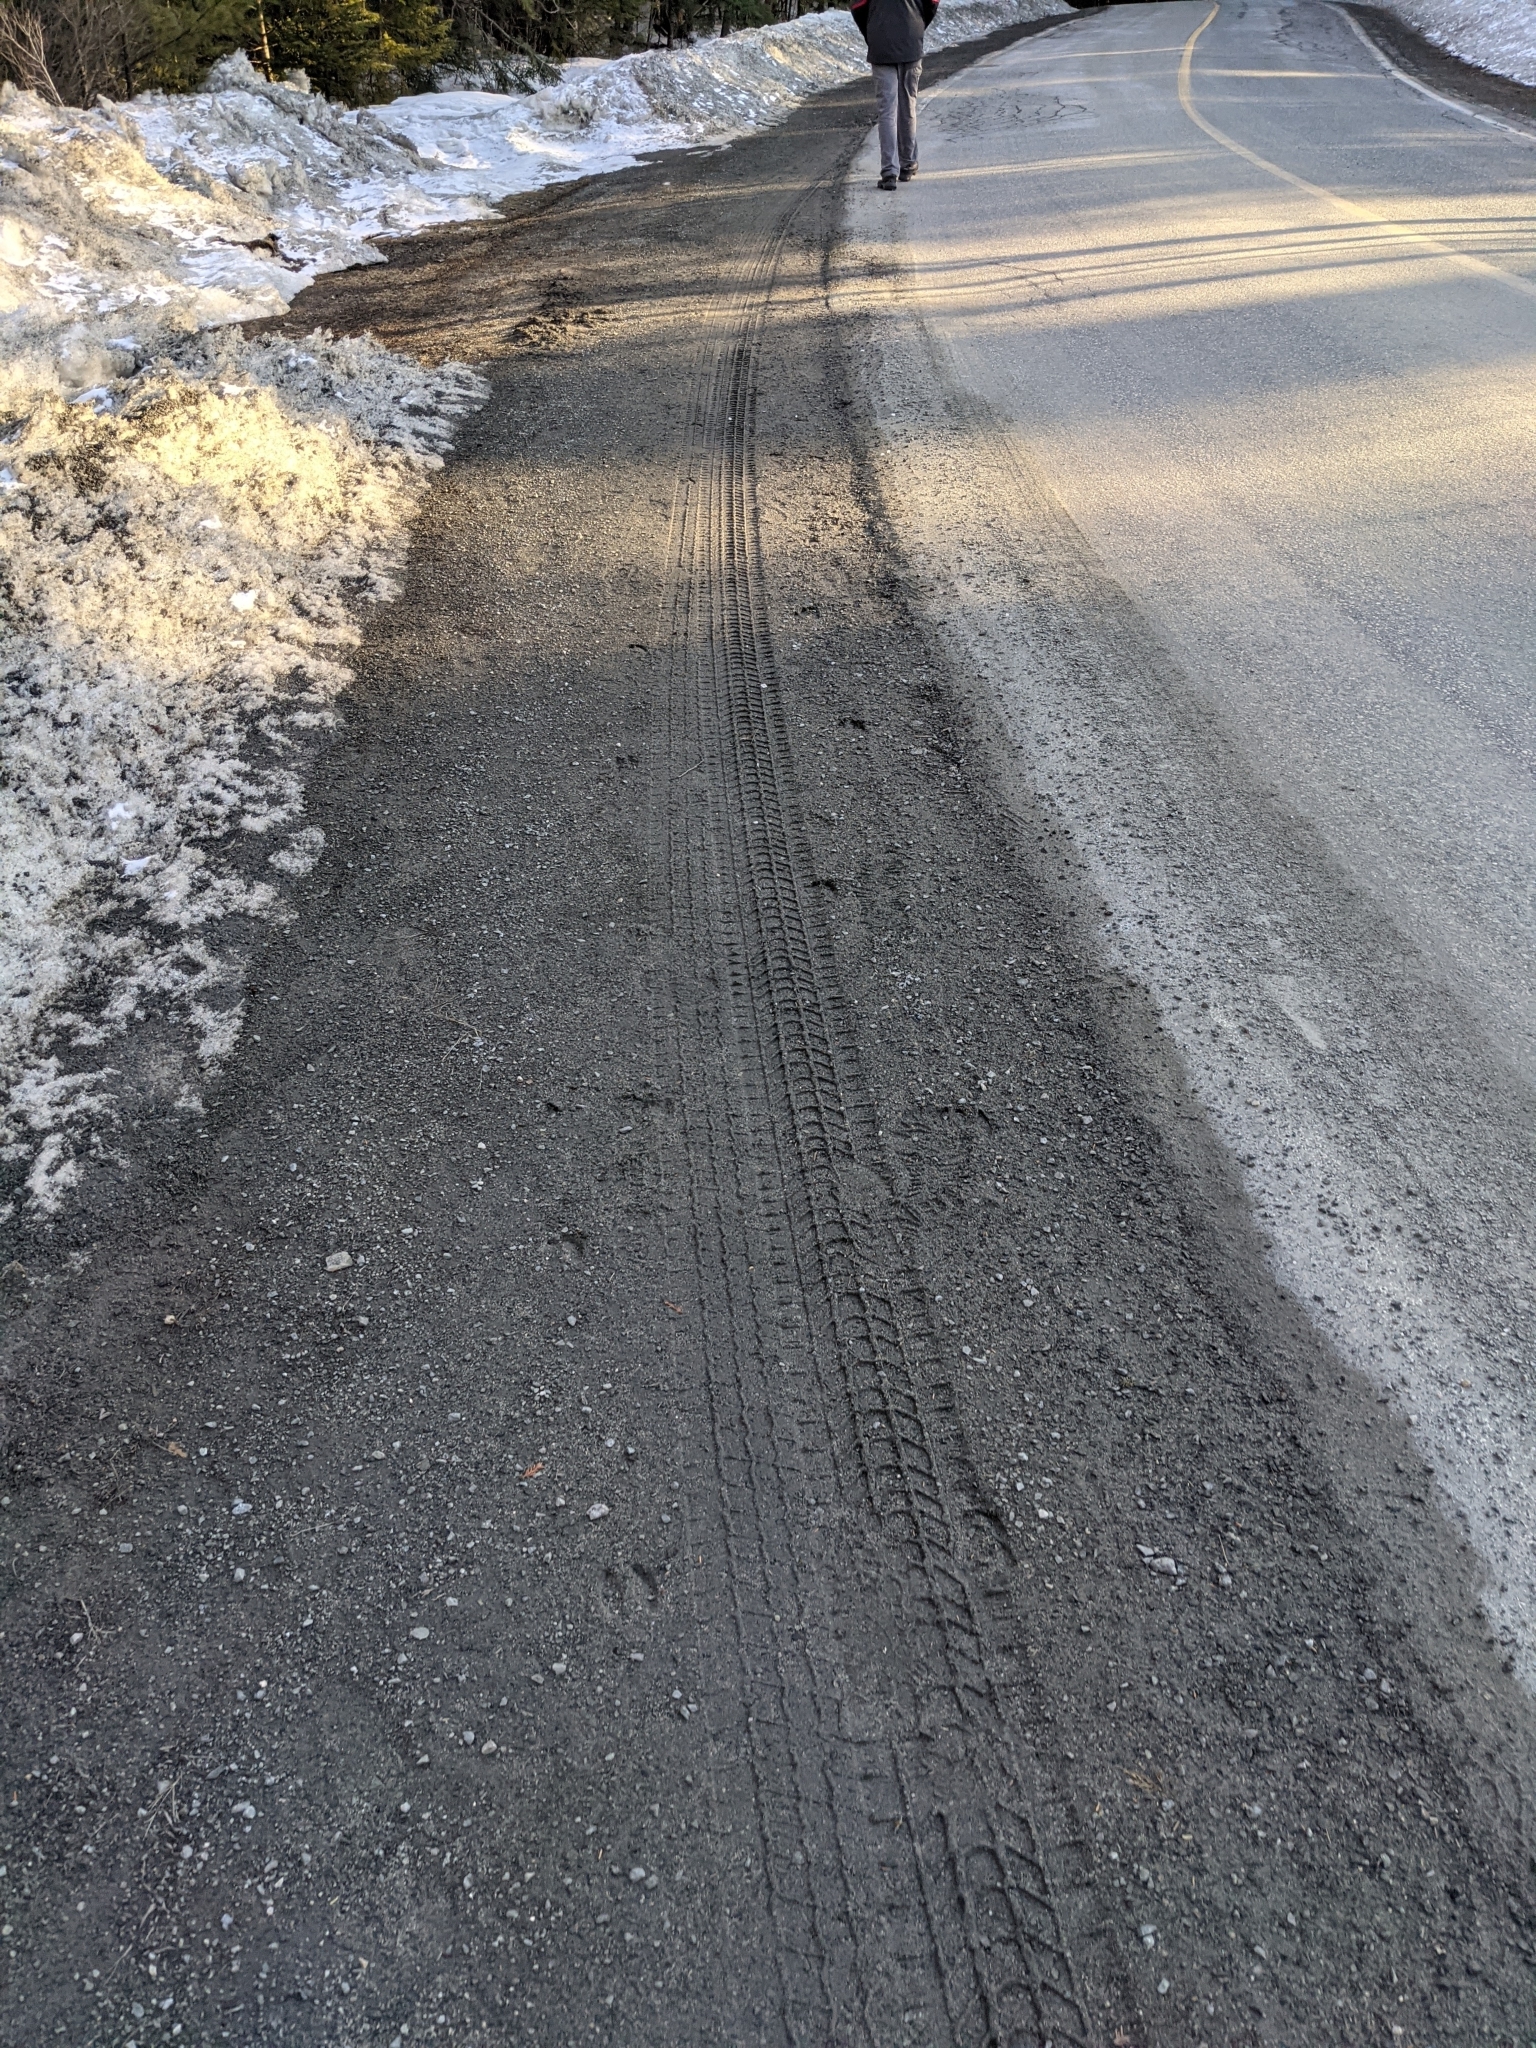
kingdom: Animalia
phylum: Chordata
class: Mammalia
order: Artiodactyla
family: Cervidae
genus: Odocoileus
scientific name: Odocoileus virginianus
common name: White-tailed deer
